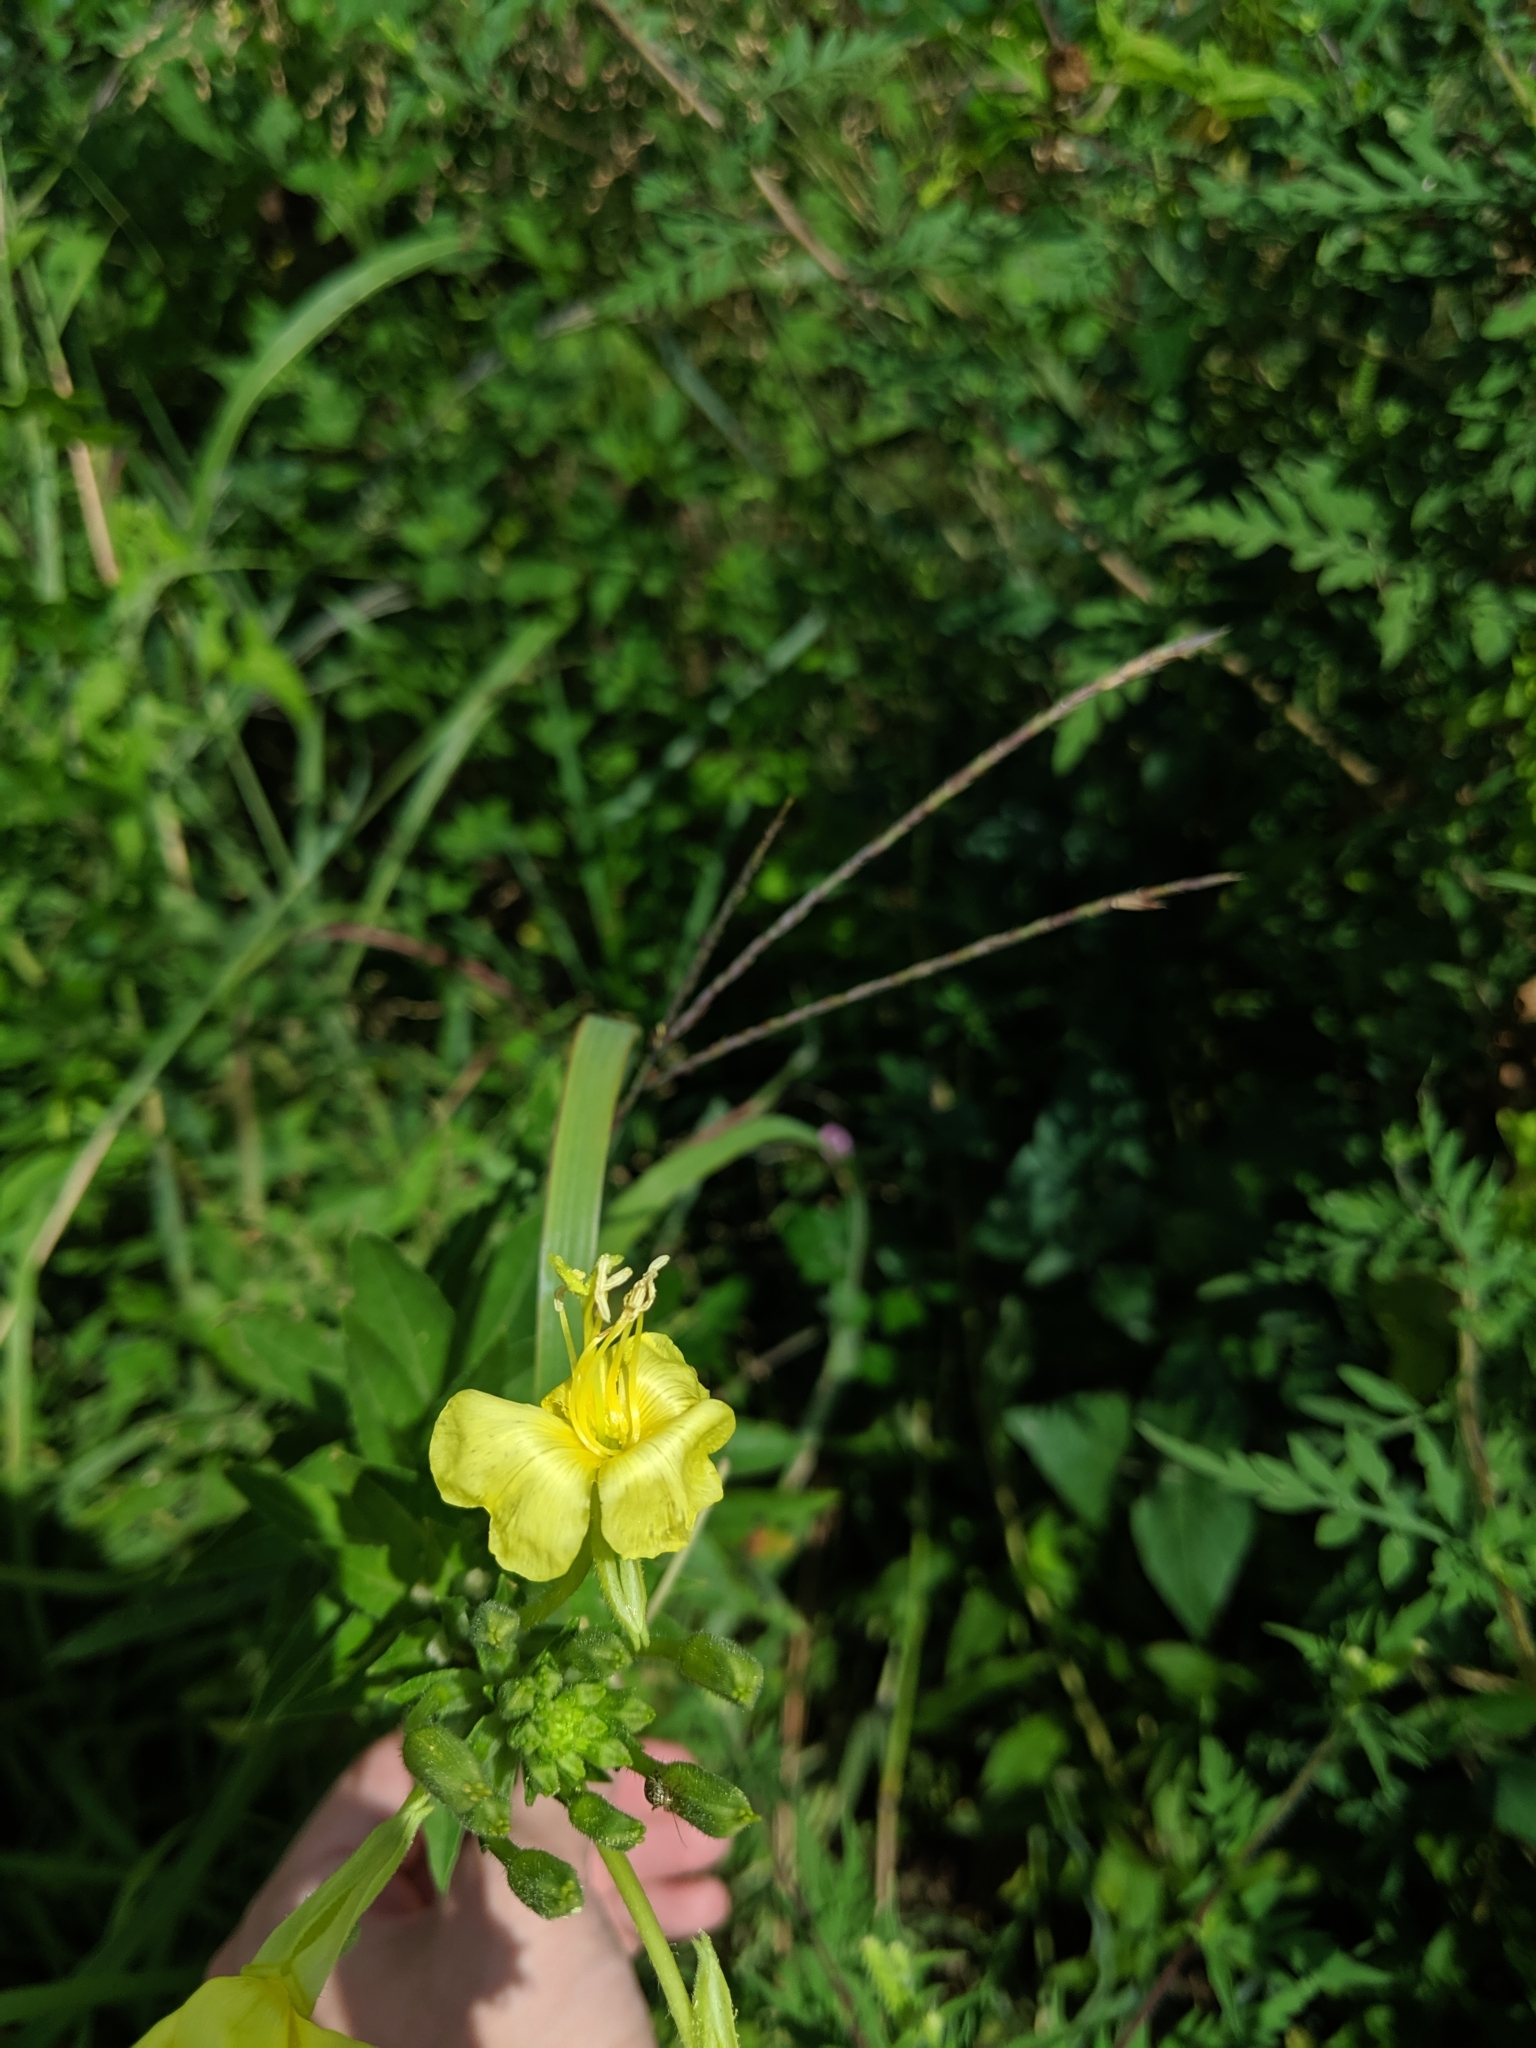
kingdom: Plantae
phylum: Tracheophyta
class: Magnoliopsida
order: Myrtales
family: Onagraceae
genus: Oenothera
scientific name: Oenothera biennis
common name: Common evening-primrose
